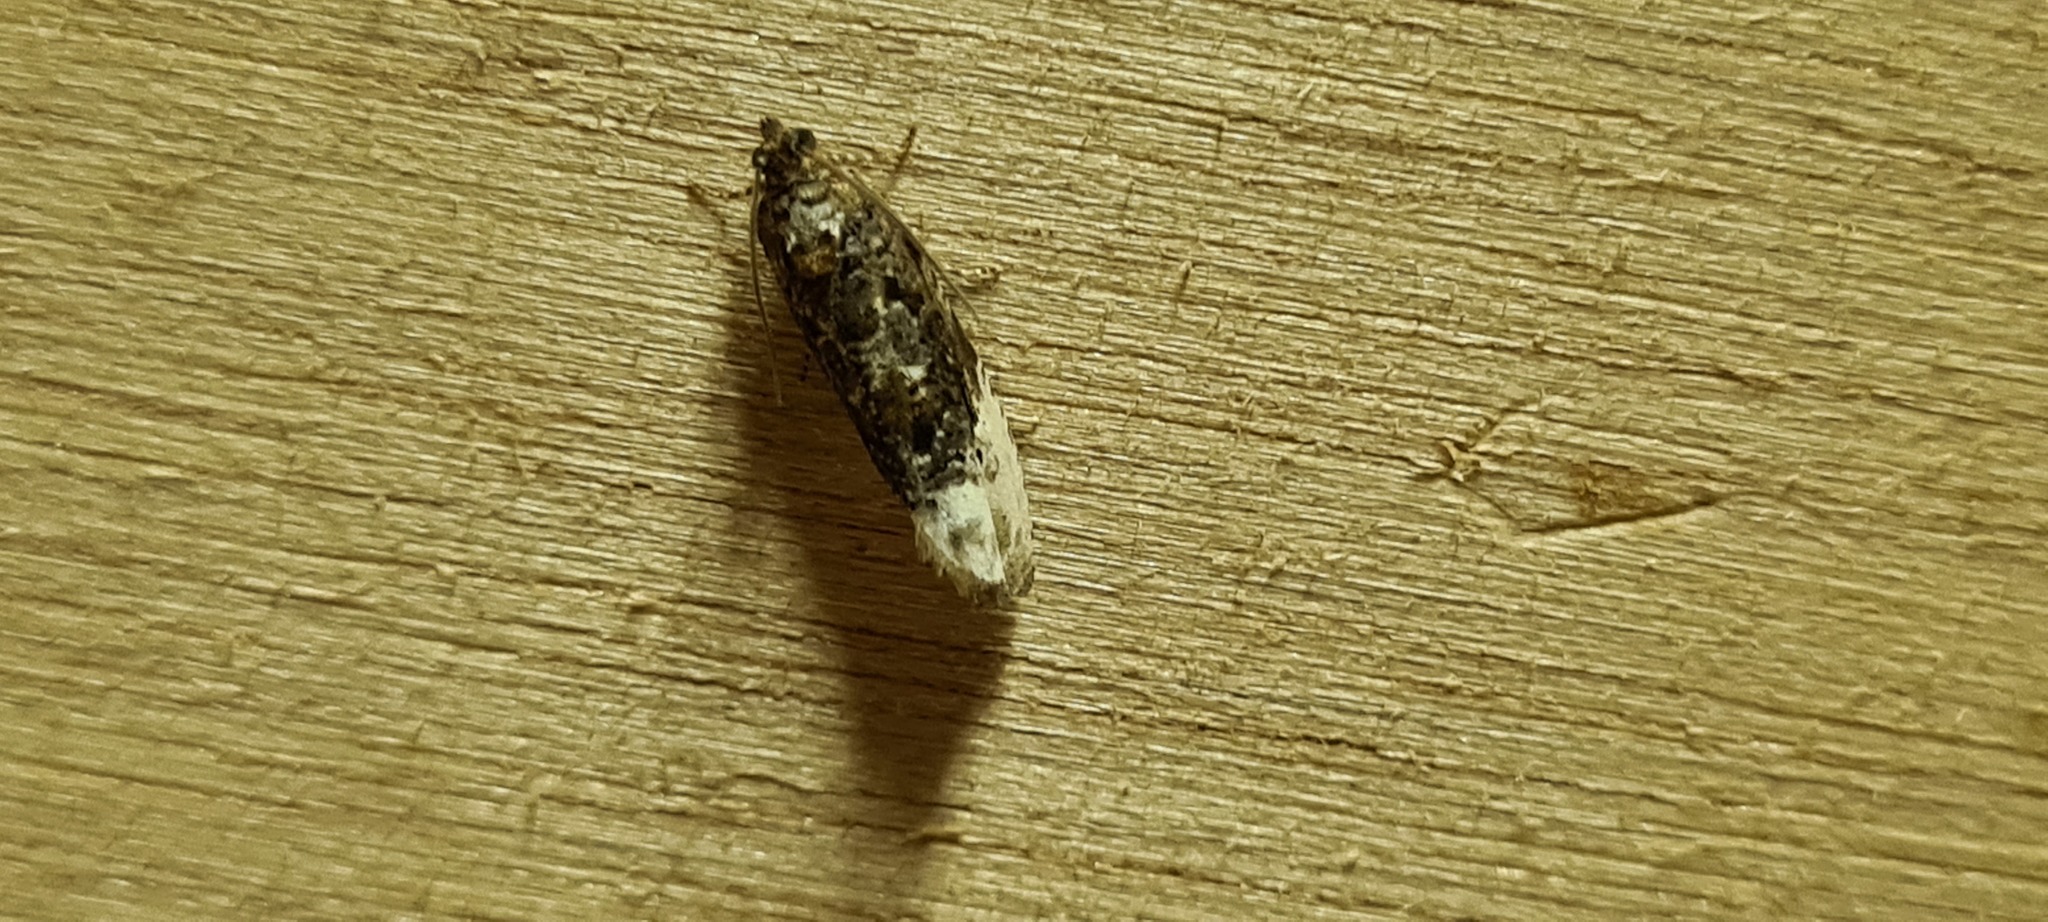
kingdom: Animalia
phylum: Arthropoda
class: Insecta
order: Lepidoptera
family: Tortricidae
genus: Hedya
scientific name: Hedya nubiferana
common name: Marbled orchard tortrix
